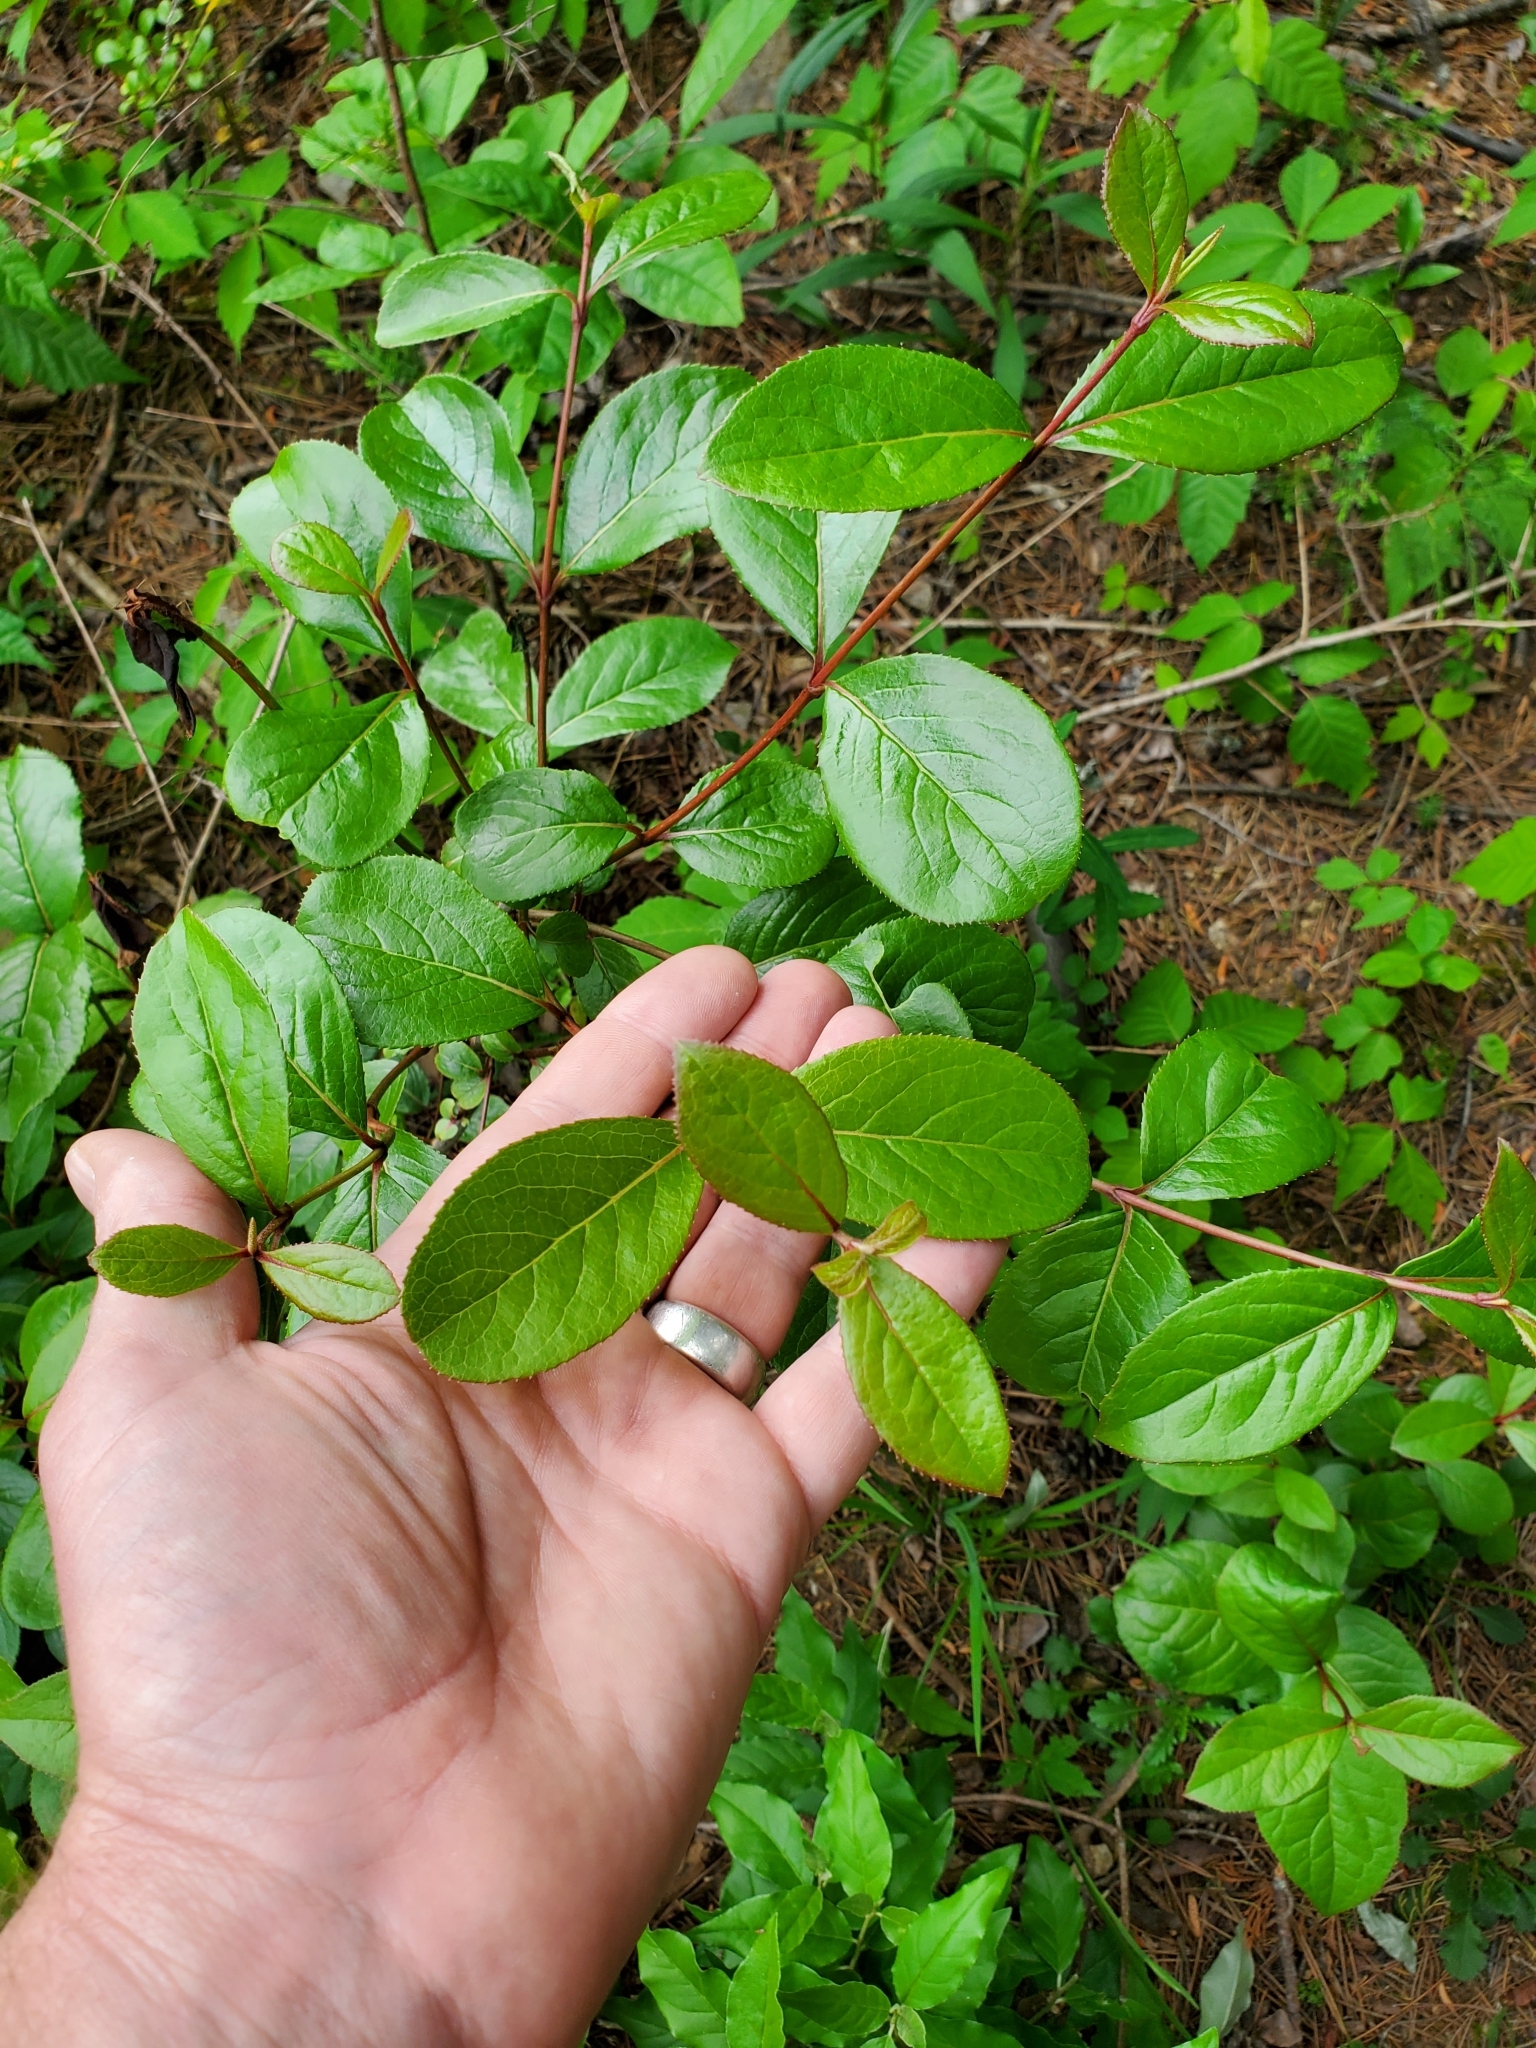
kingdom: Plantae
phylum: Tracheophyta
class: Magnoliopsida
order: Dipsacales
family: Viburnaceae
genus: Viburnum
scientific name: Viburnum rufidulum
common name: Blue haw
